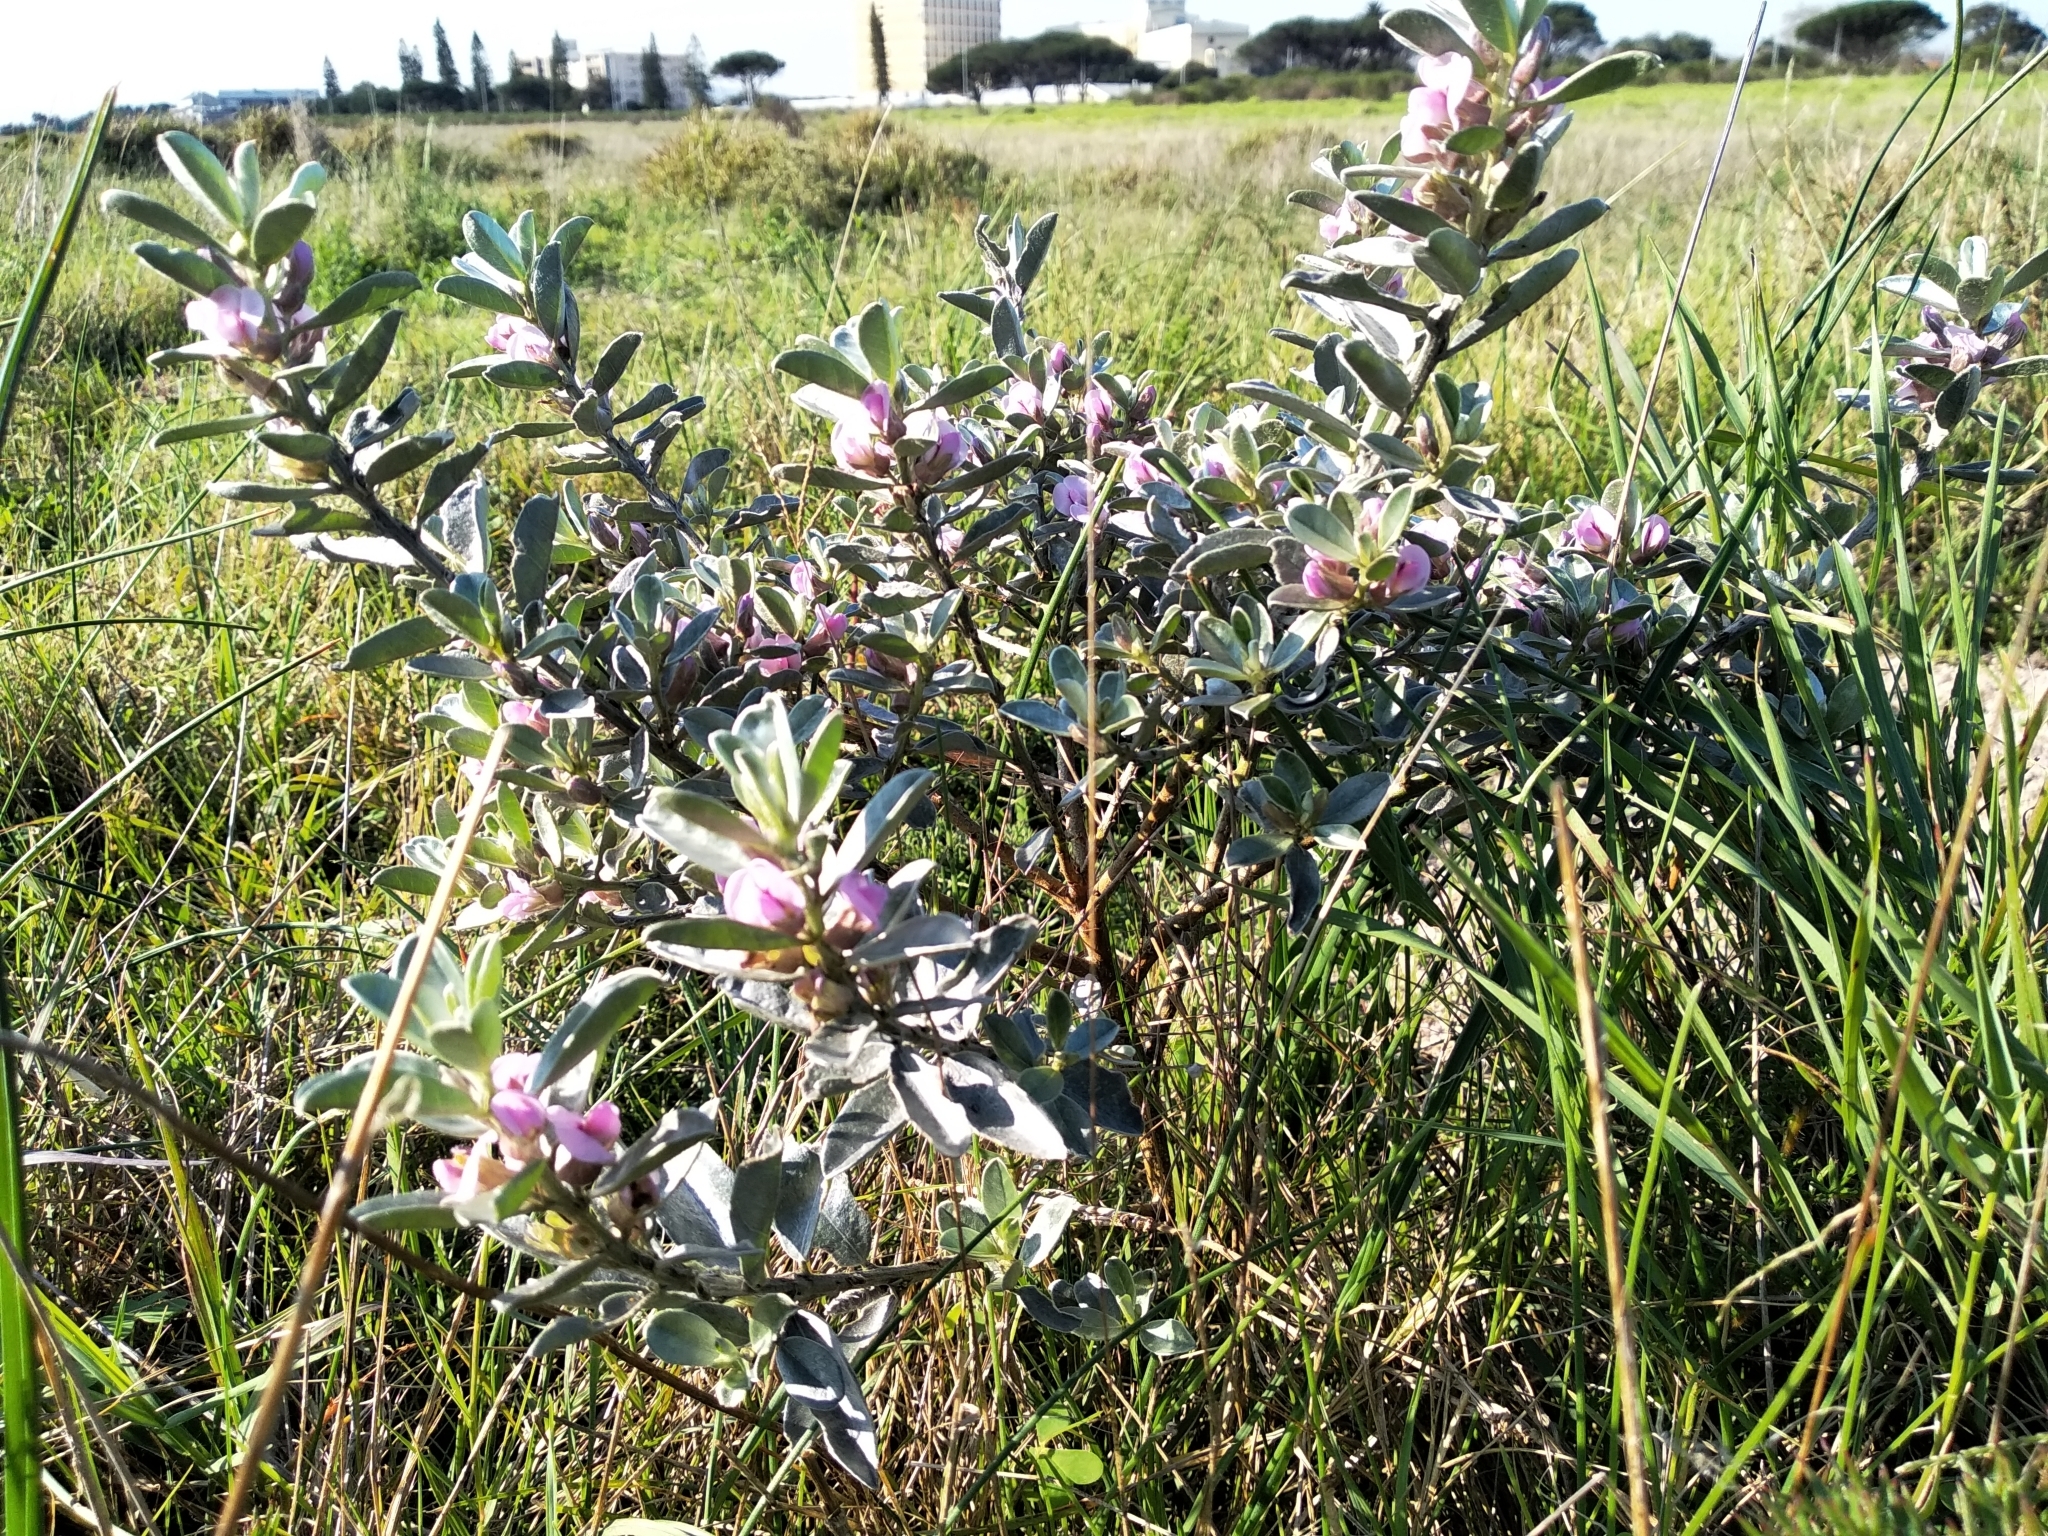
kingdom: Plantae
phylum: Tracheophyta
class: Magnoliopsida
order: Fabales
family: Fabaceae
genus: Podalyria
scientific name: Podalyria sericea
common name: Silver podalyria
